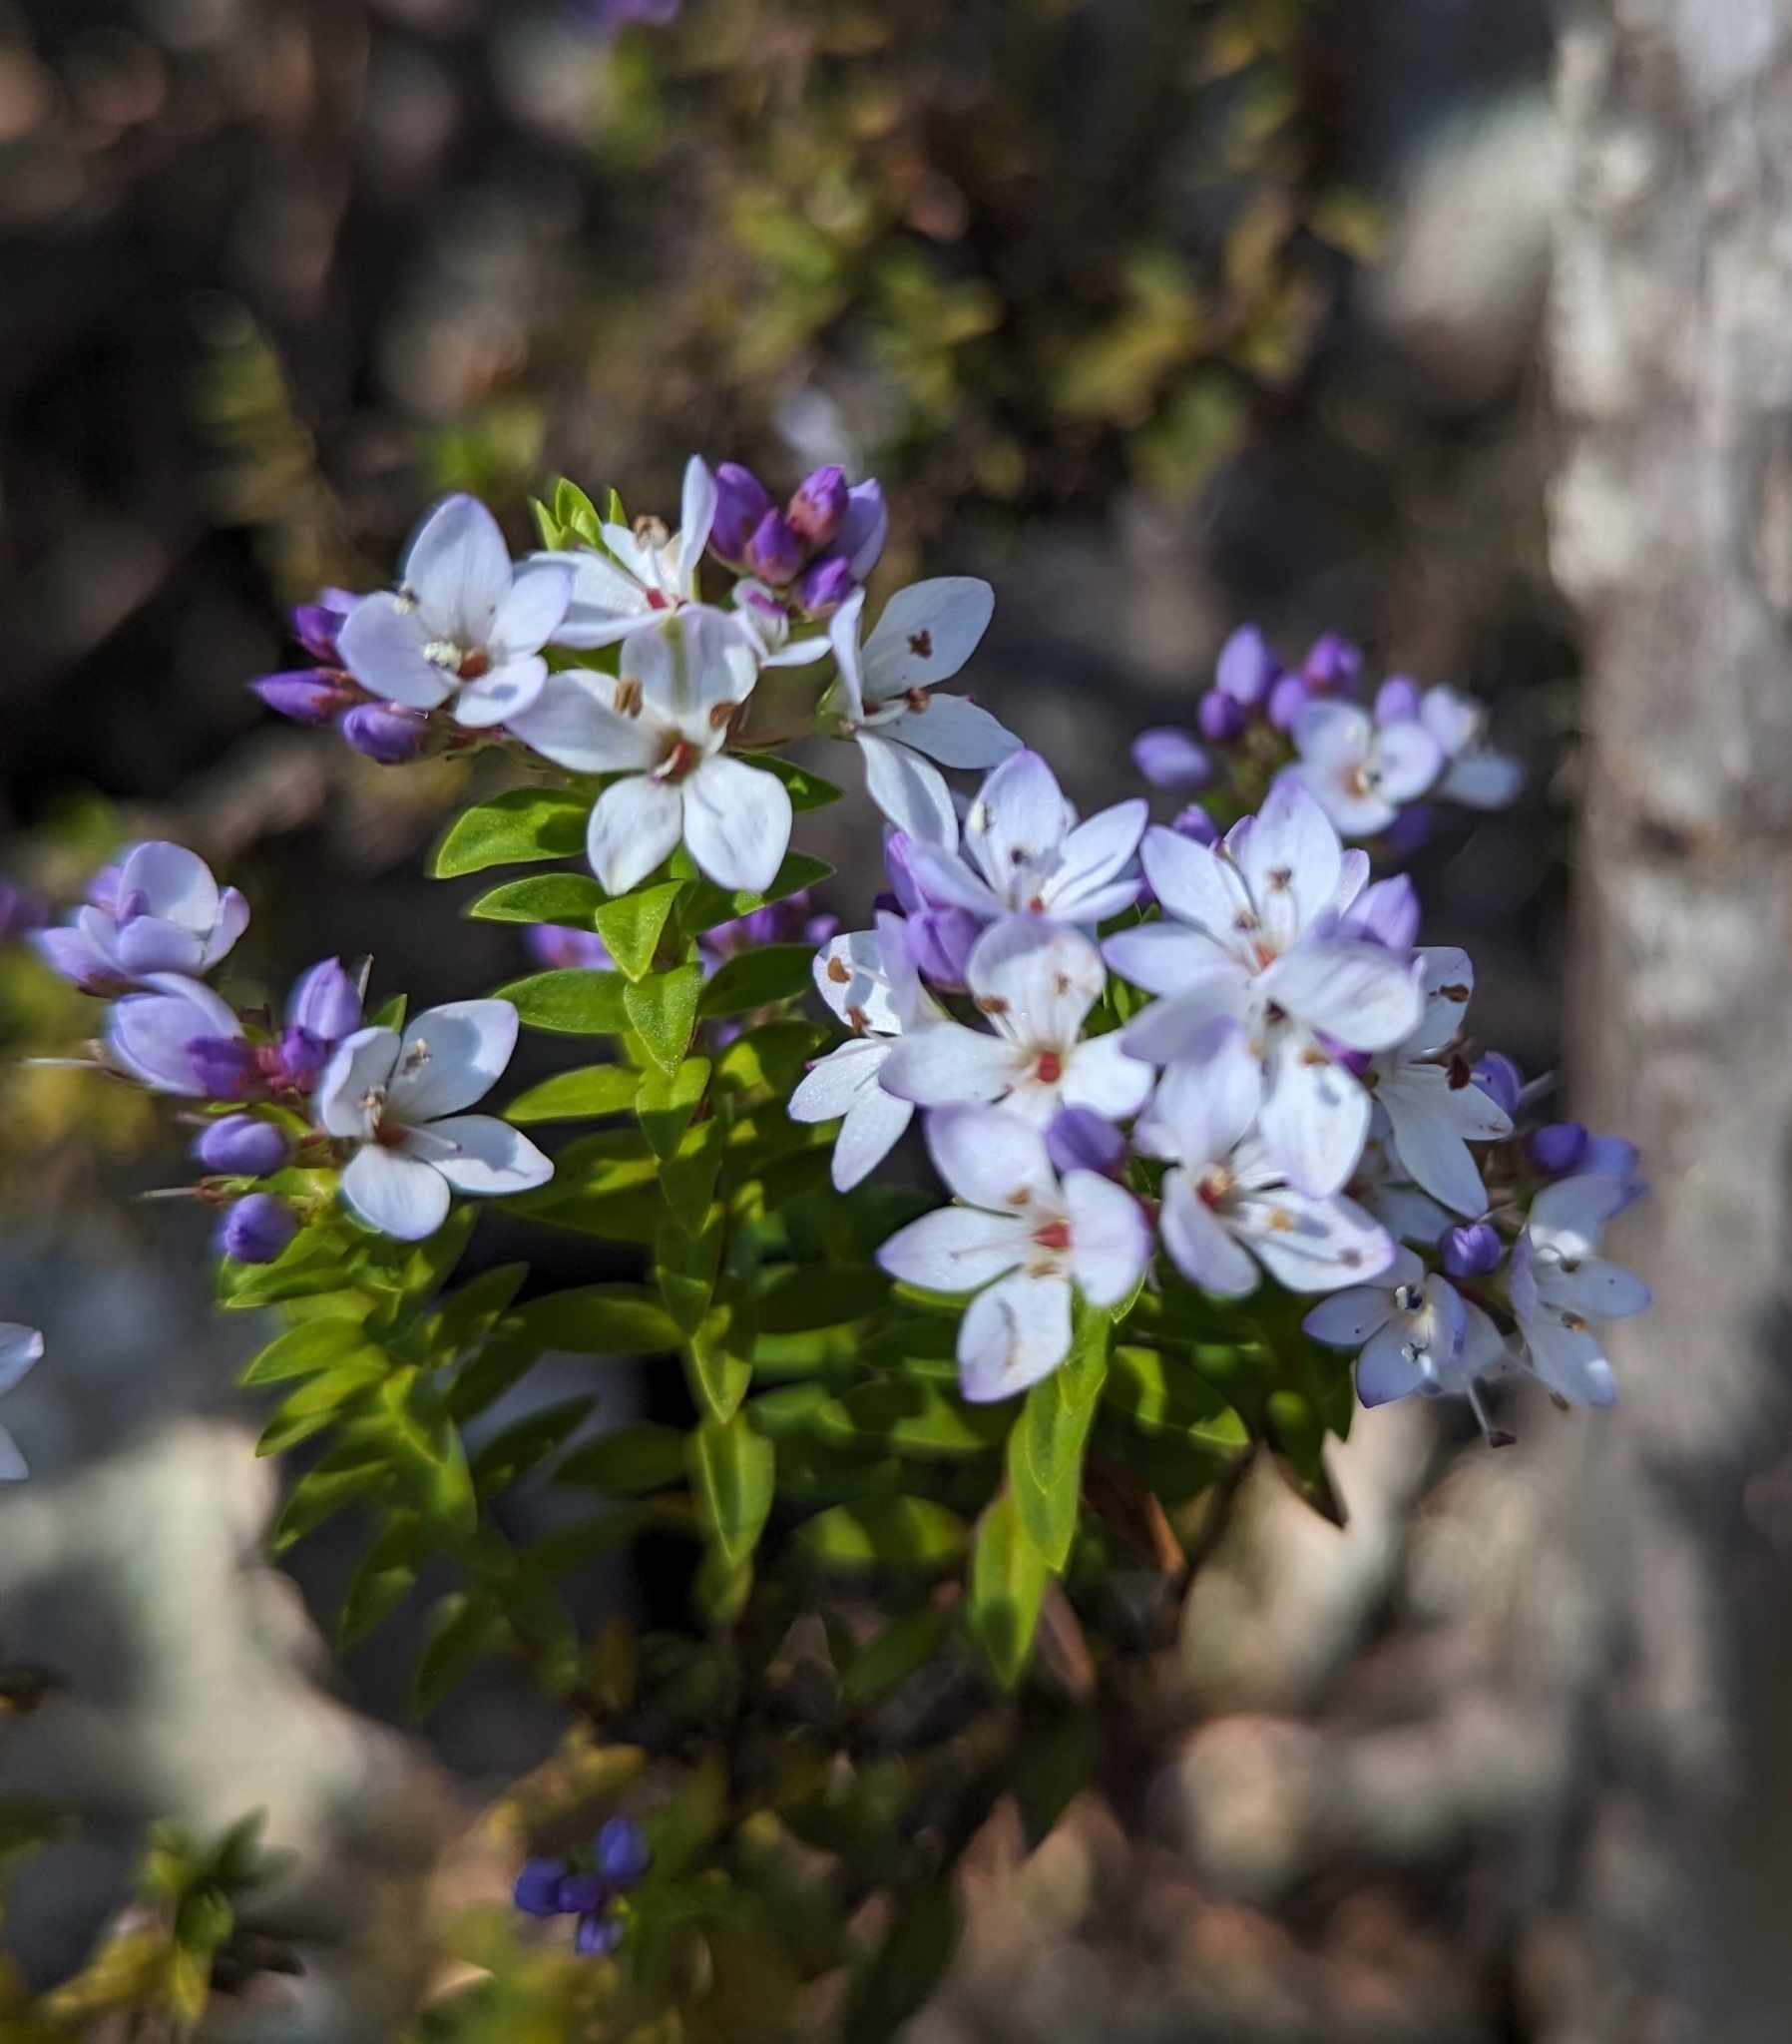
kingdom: Plantae
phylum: Tracheophyta
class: Magnoliopsida
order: Lamiales
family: Plantaginaceae
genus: Veronica
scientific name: Veronica formosa
